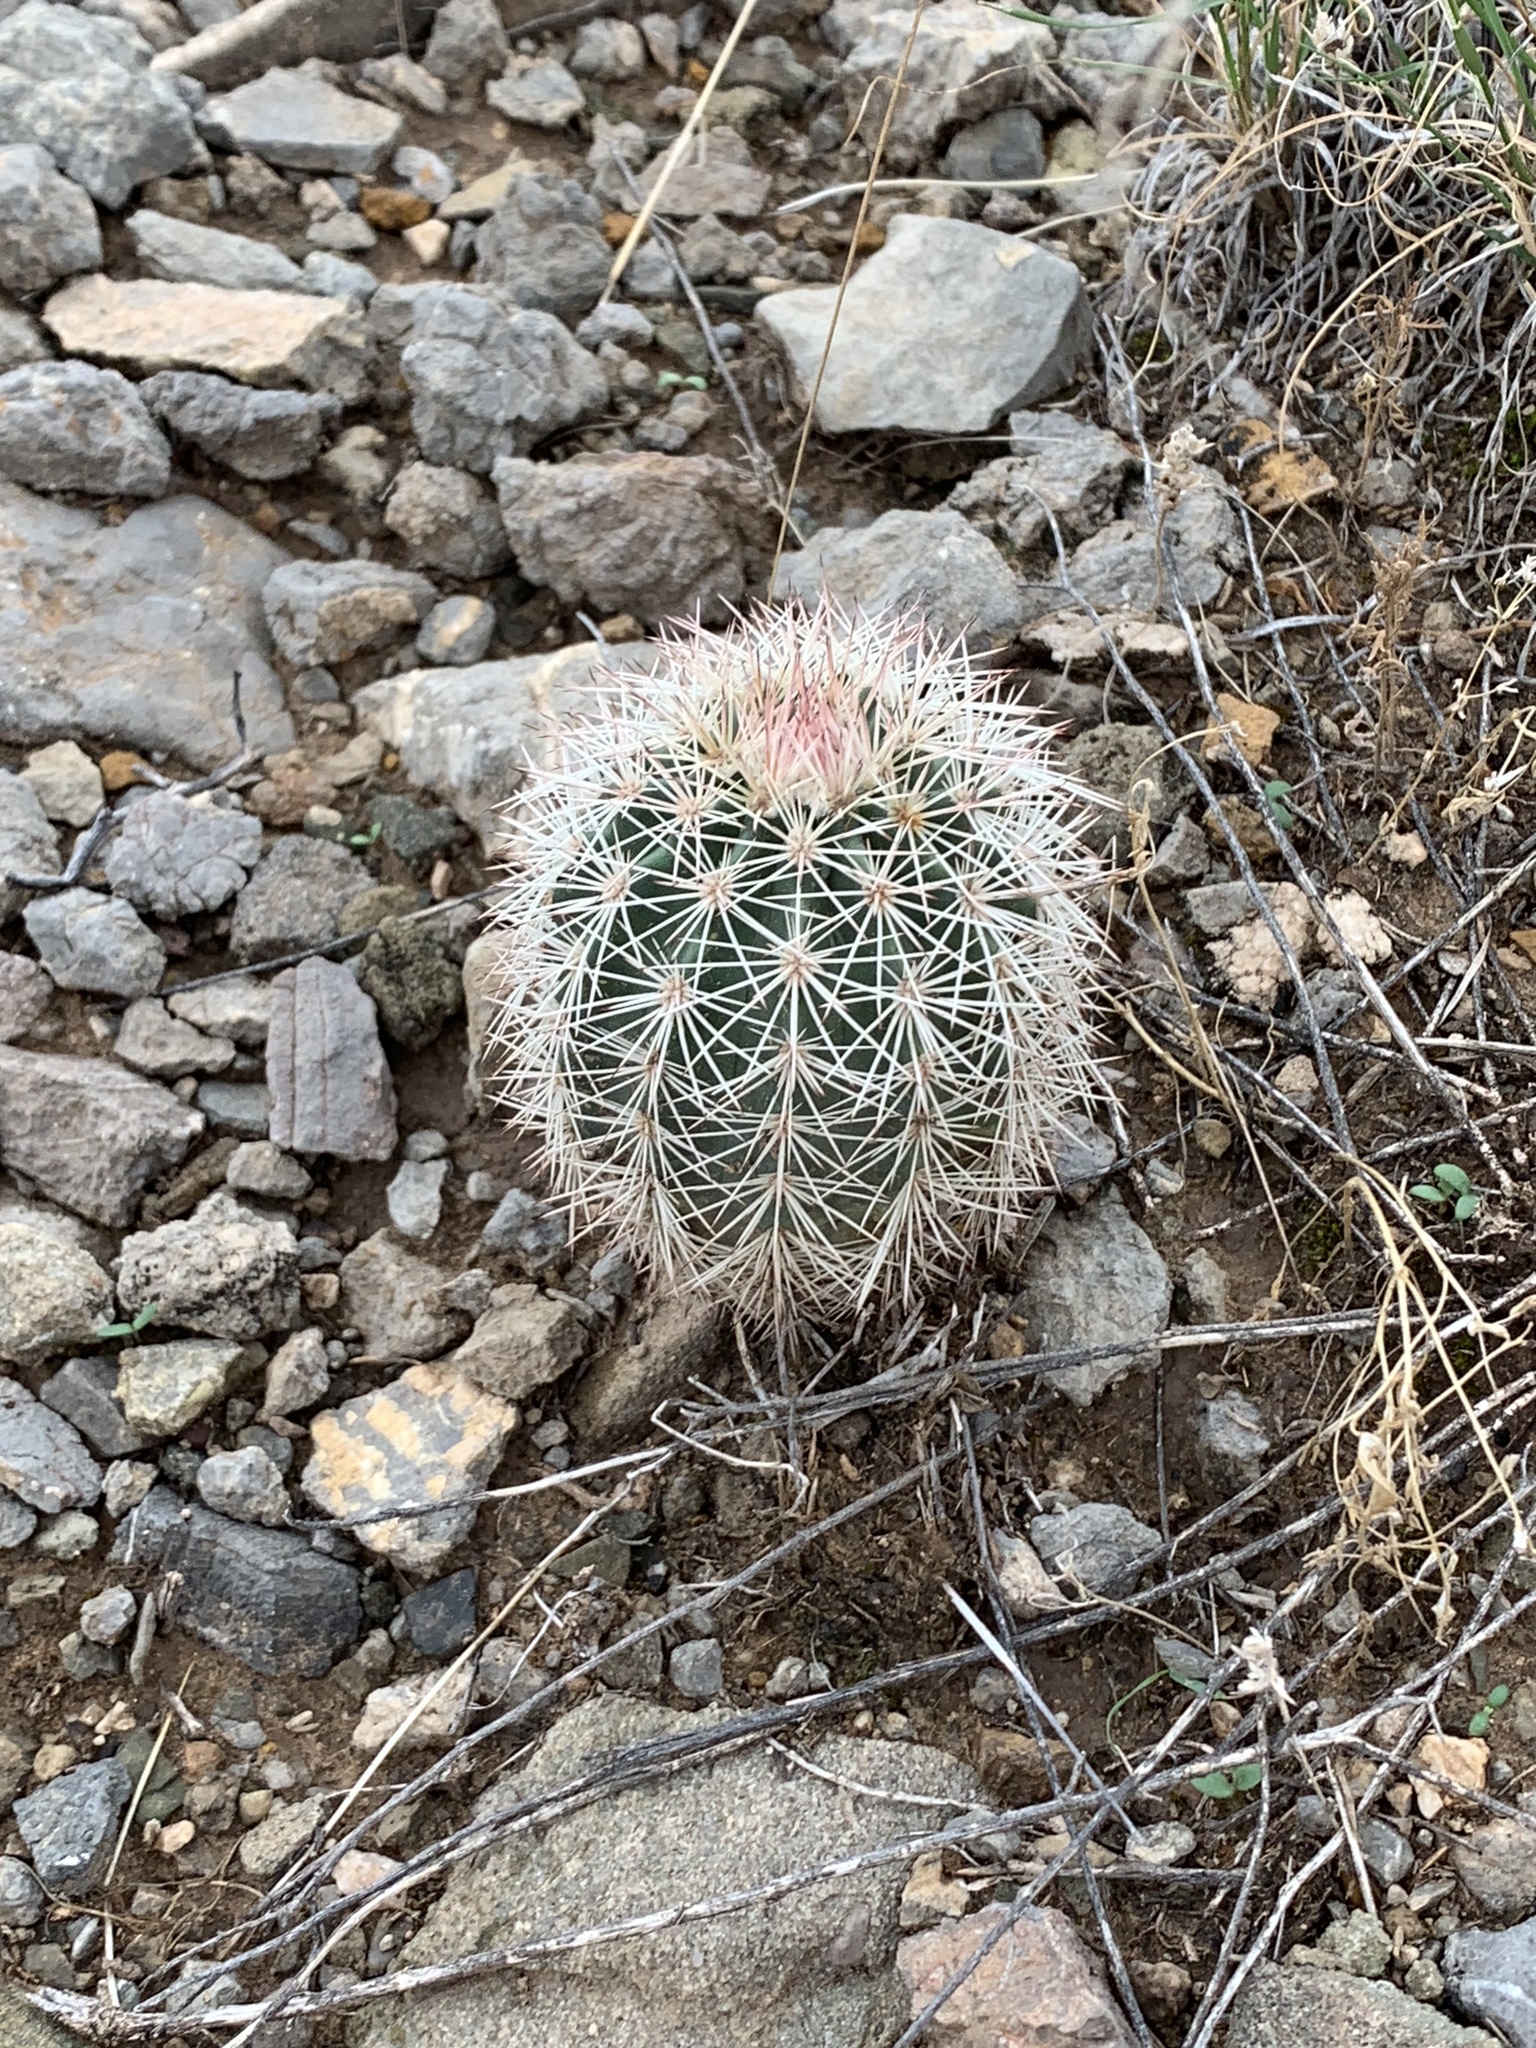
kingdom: Plantae
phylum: Tracheophyta
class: Magnoliopsida
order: Caryophyllales
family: Cactaceae
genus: Echinocereus
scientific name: Echinocereus dasyacanthus
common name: Spiny hedgehog cactus
